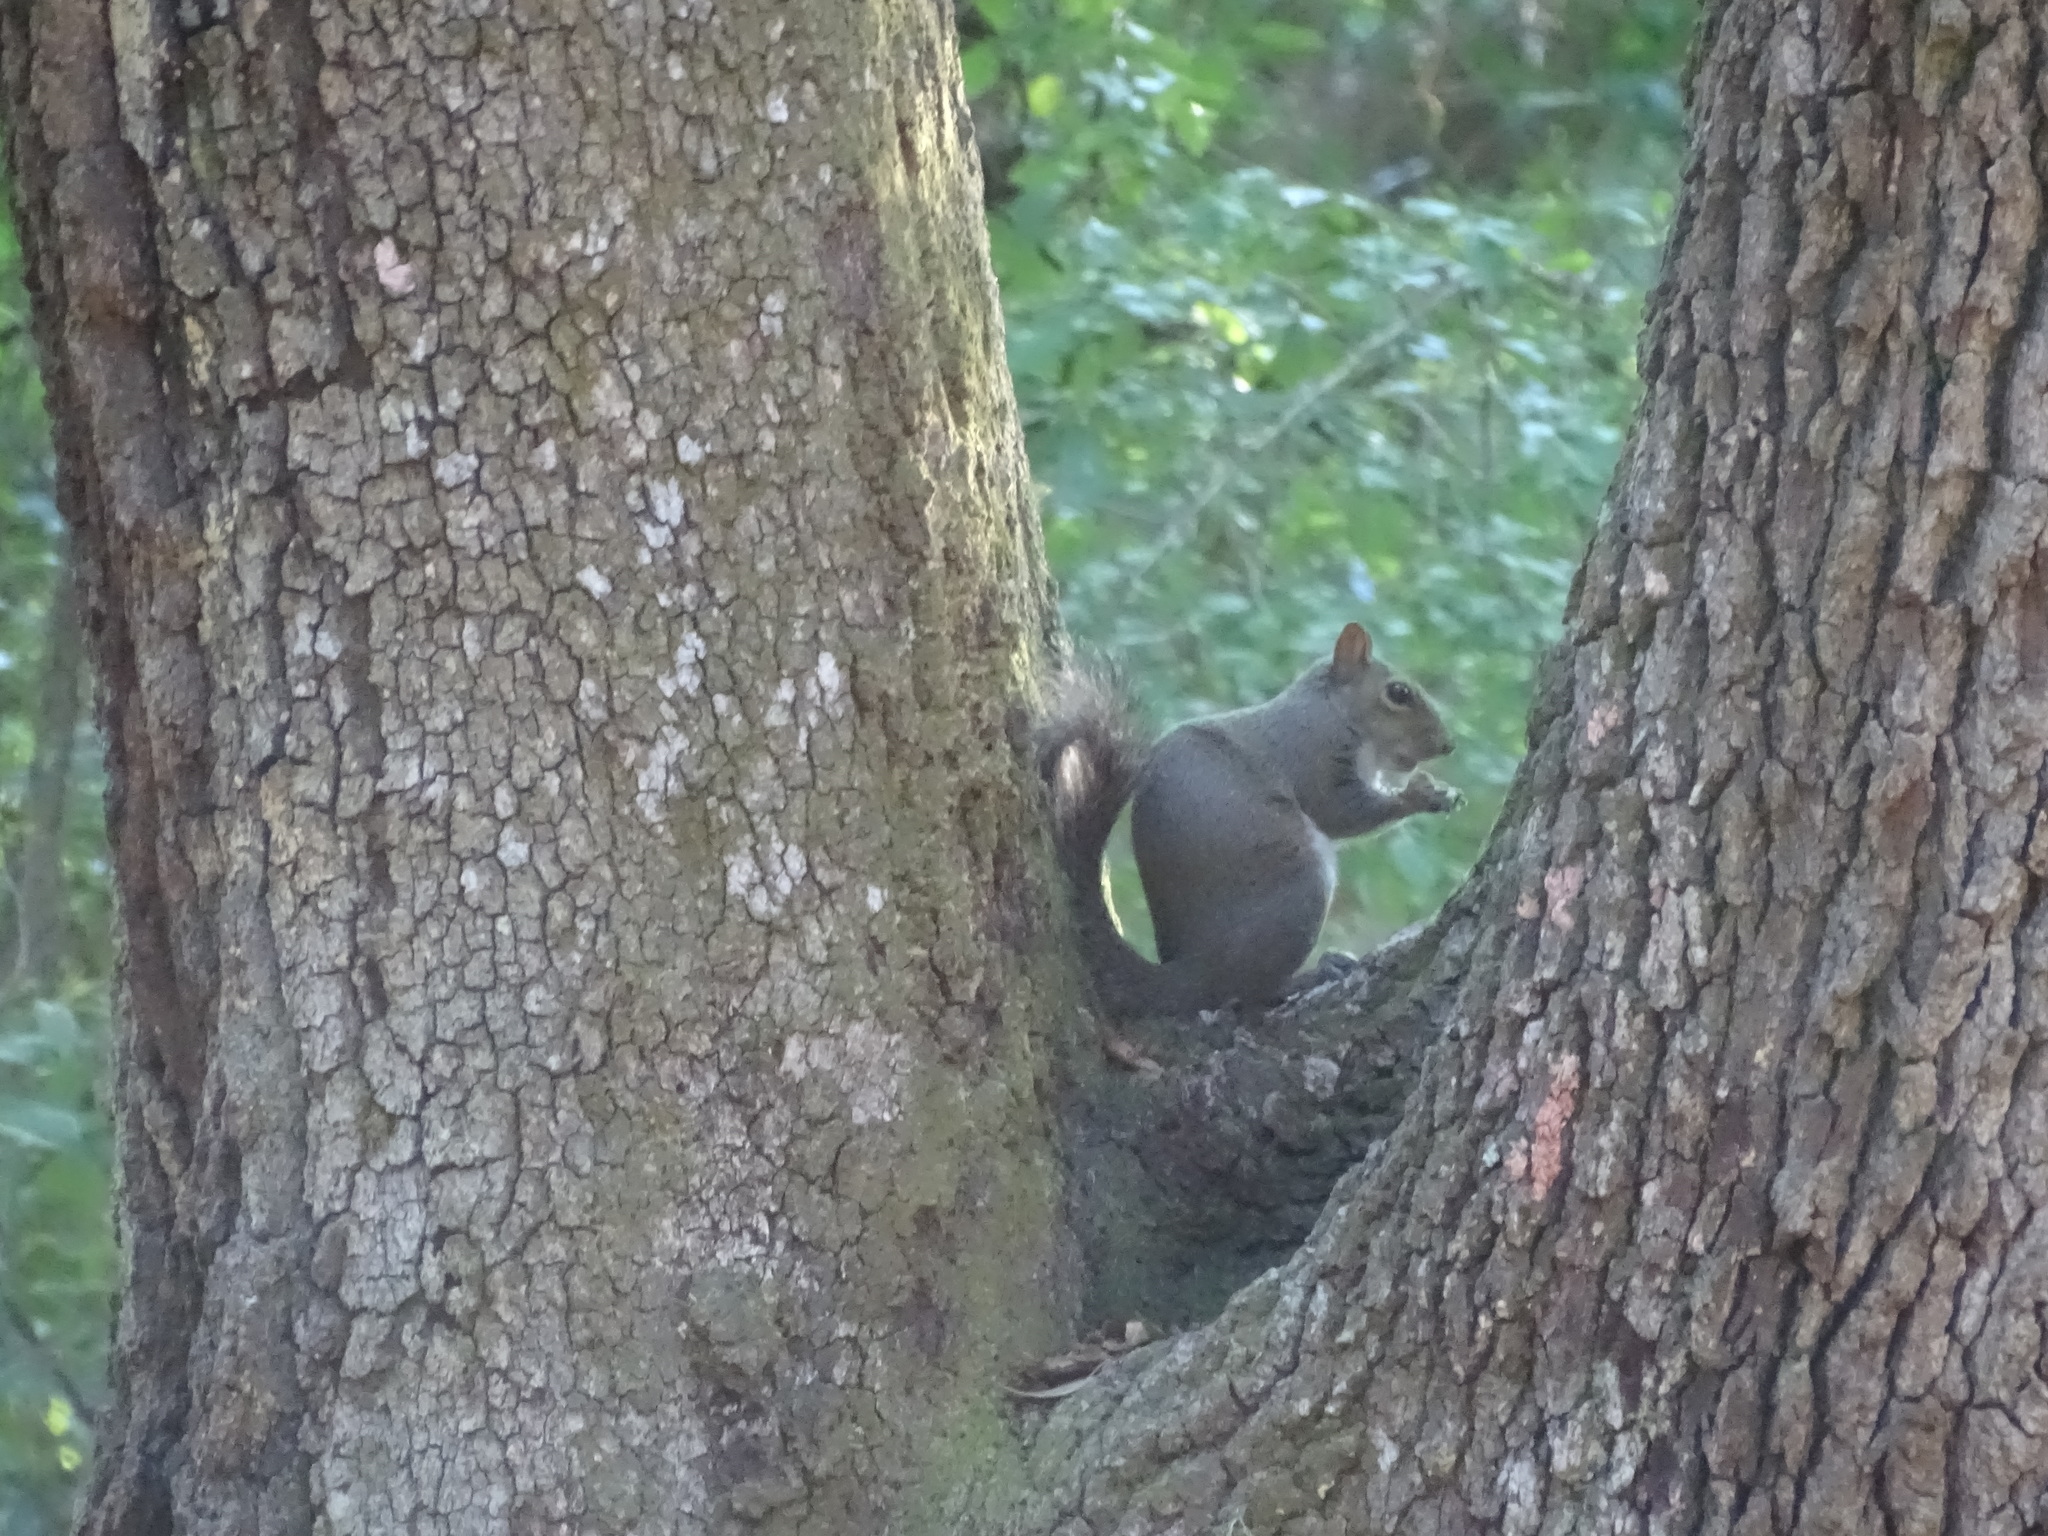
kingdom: Animalia
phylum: Chordata
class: Mammalia
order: Rodentia
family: Sciuridae
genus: Sciurus
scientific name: Sciurus carolinensis
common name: Eastern gray squirrel
